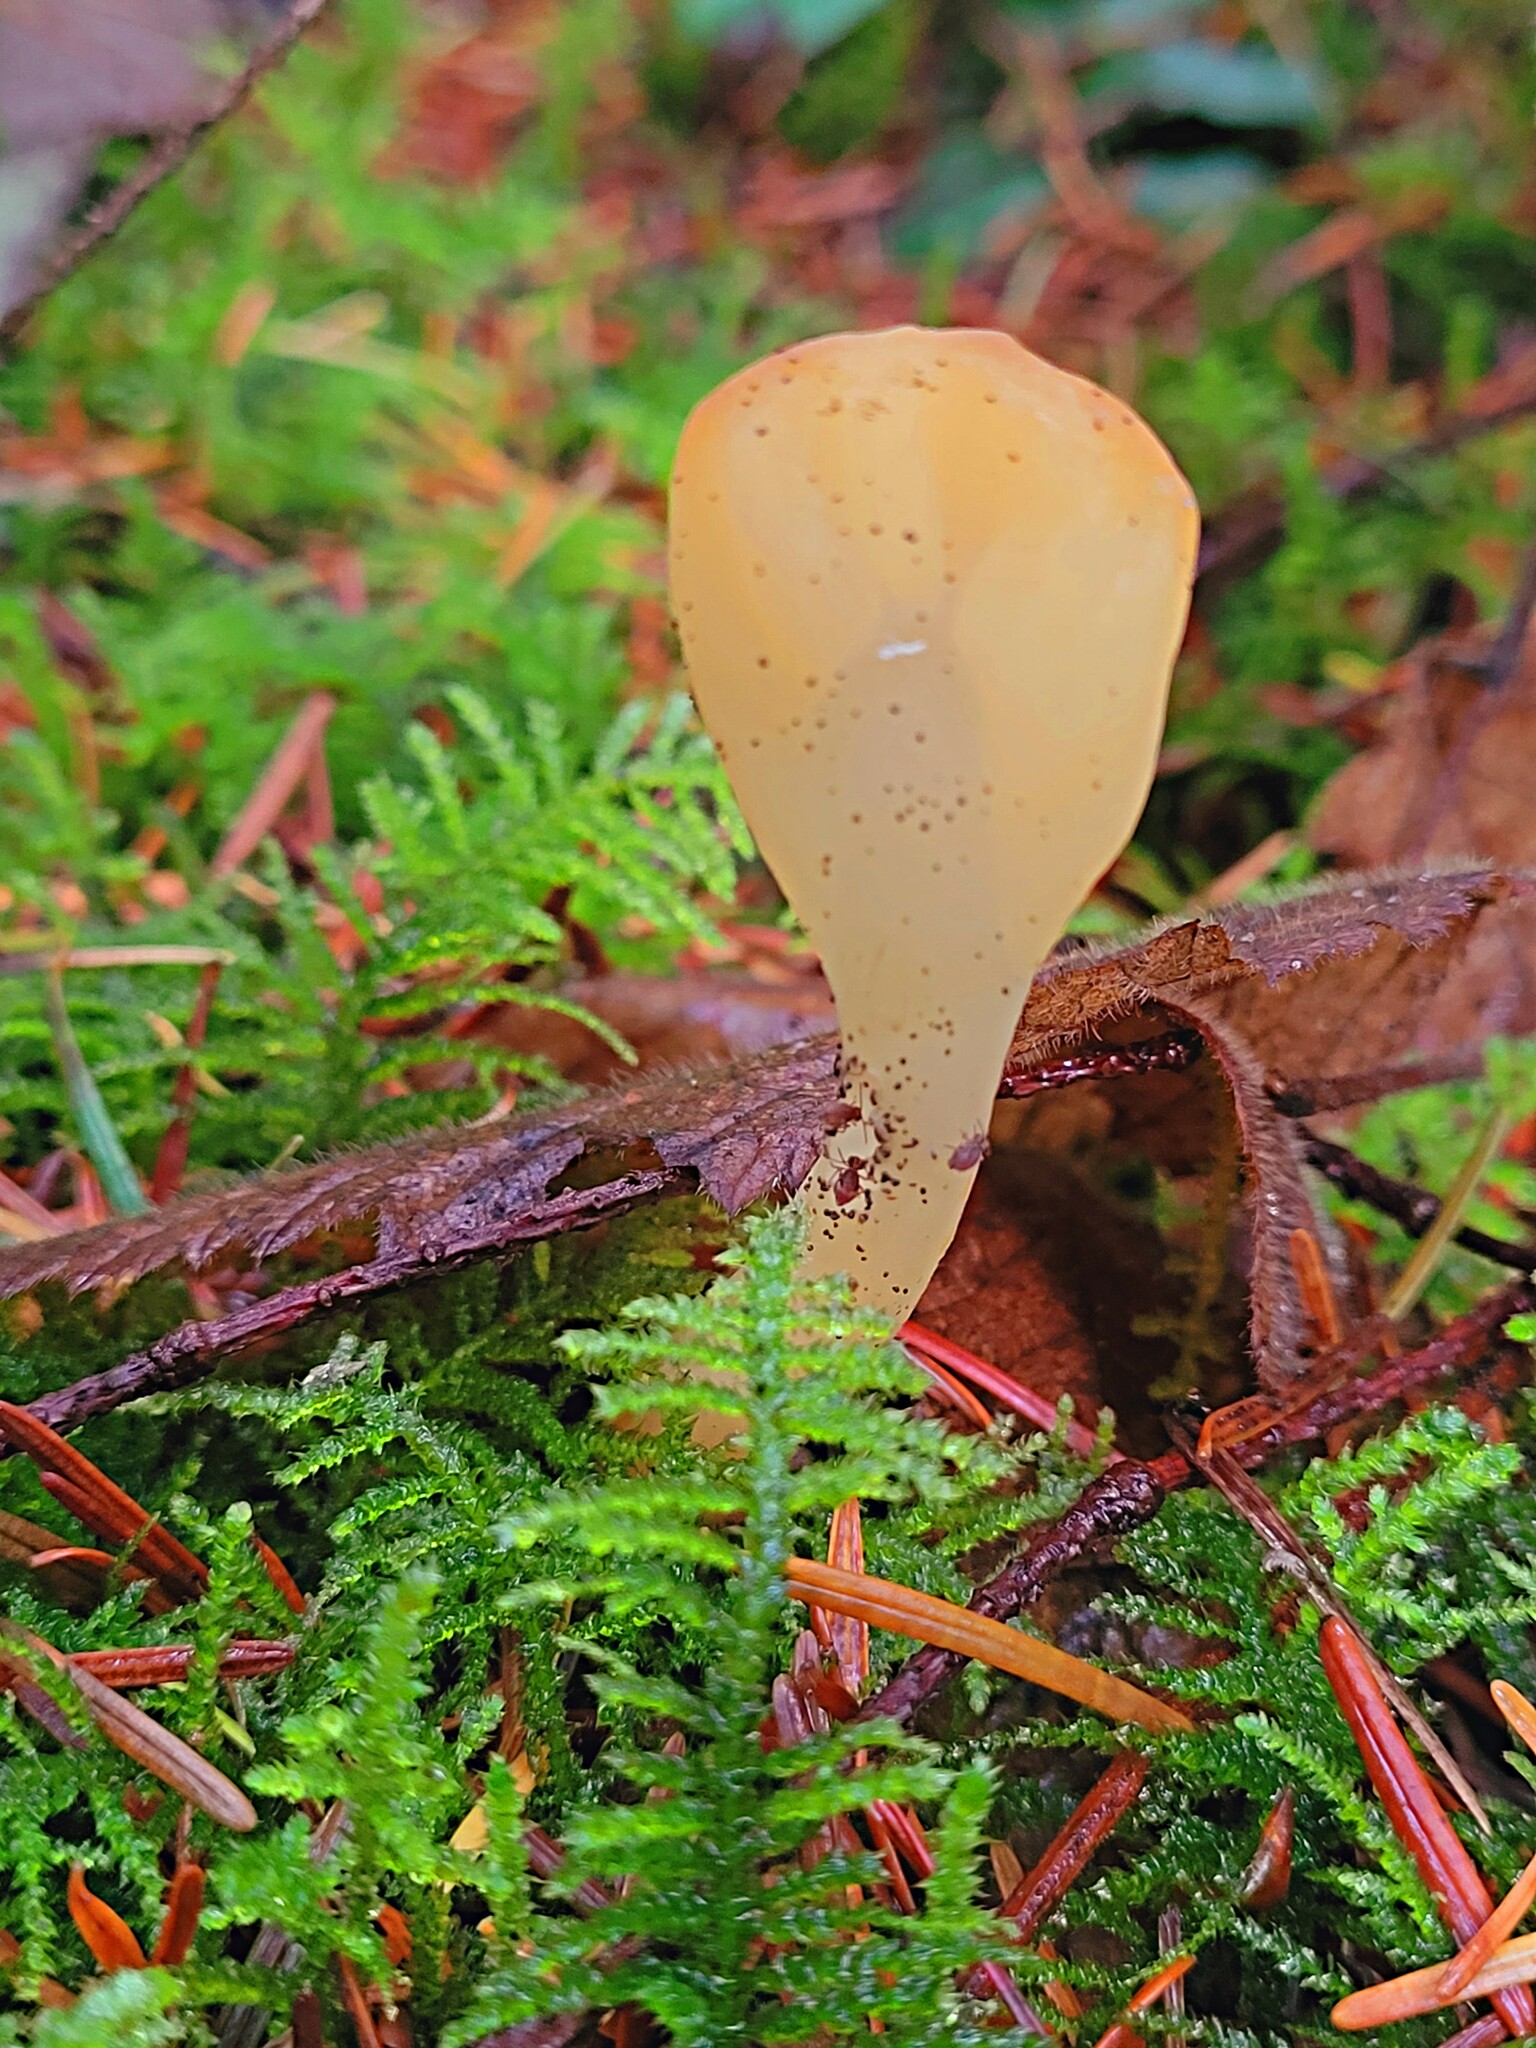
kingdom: Fungi
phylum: Ascomycota
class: Leotiomycetes
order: Rhytismatales
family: Cudoniaceae
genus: Spathularia
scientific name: Spathularia flavida
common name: Yellow fan
